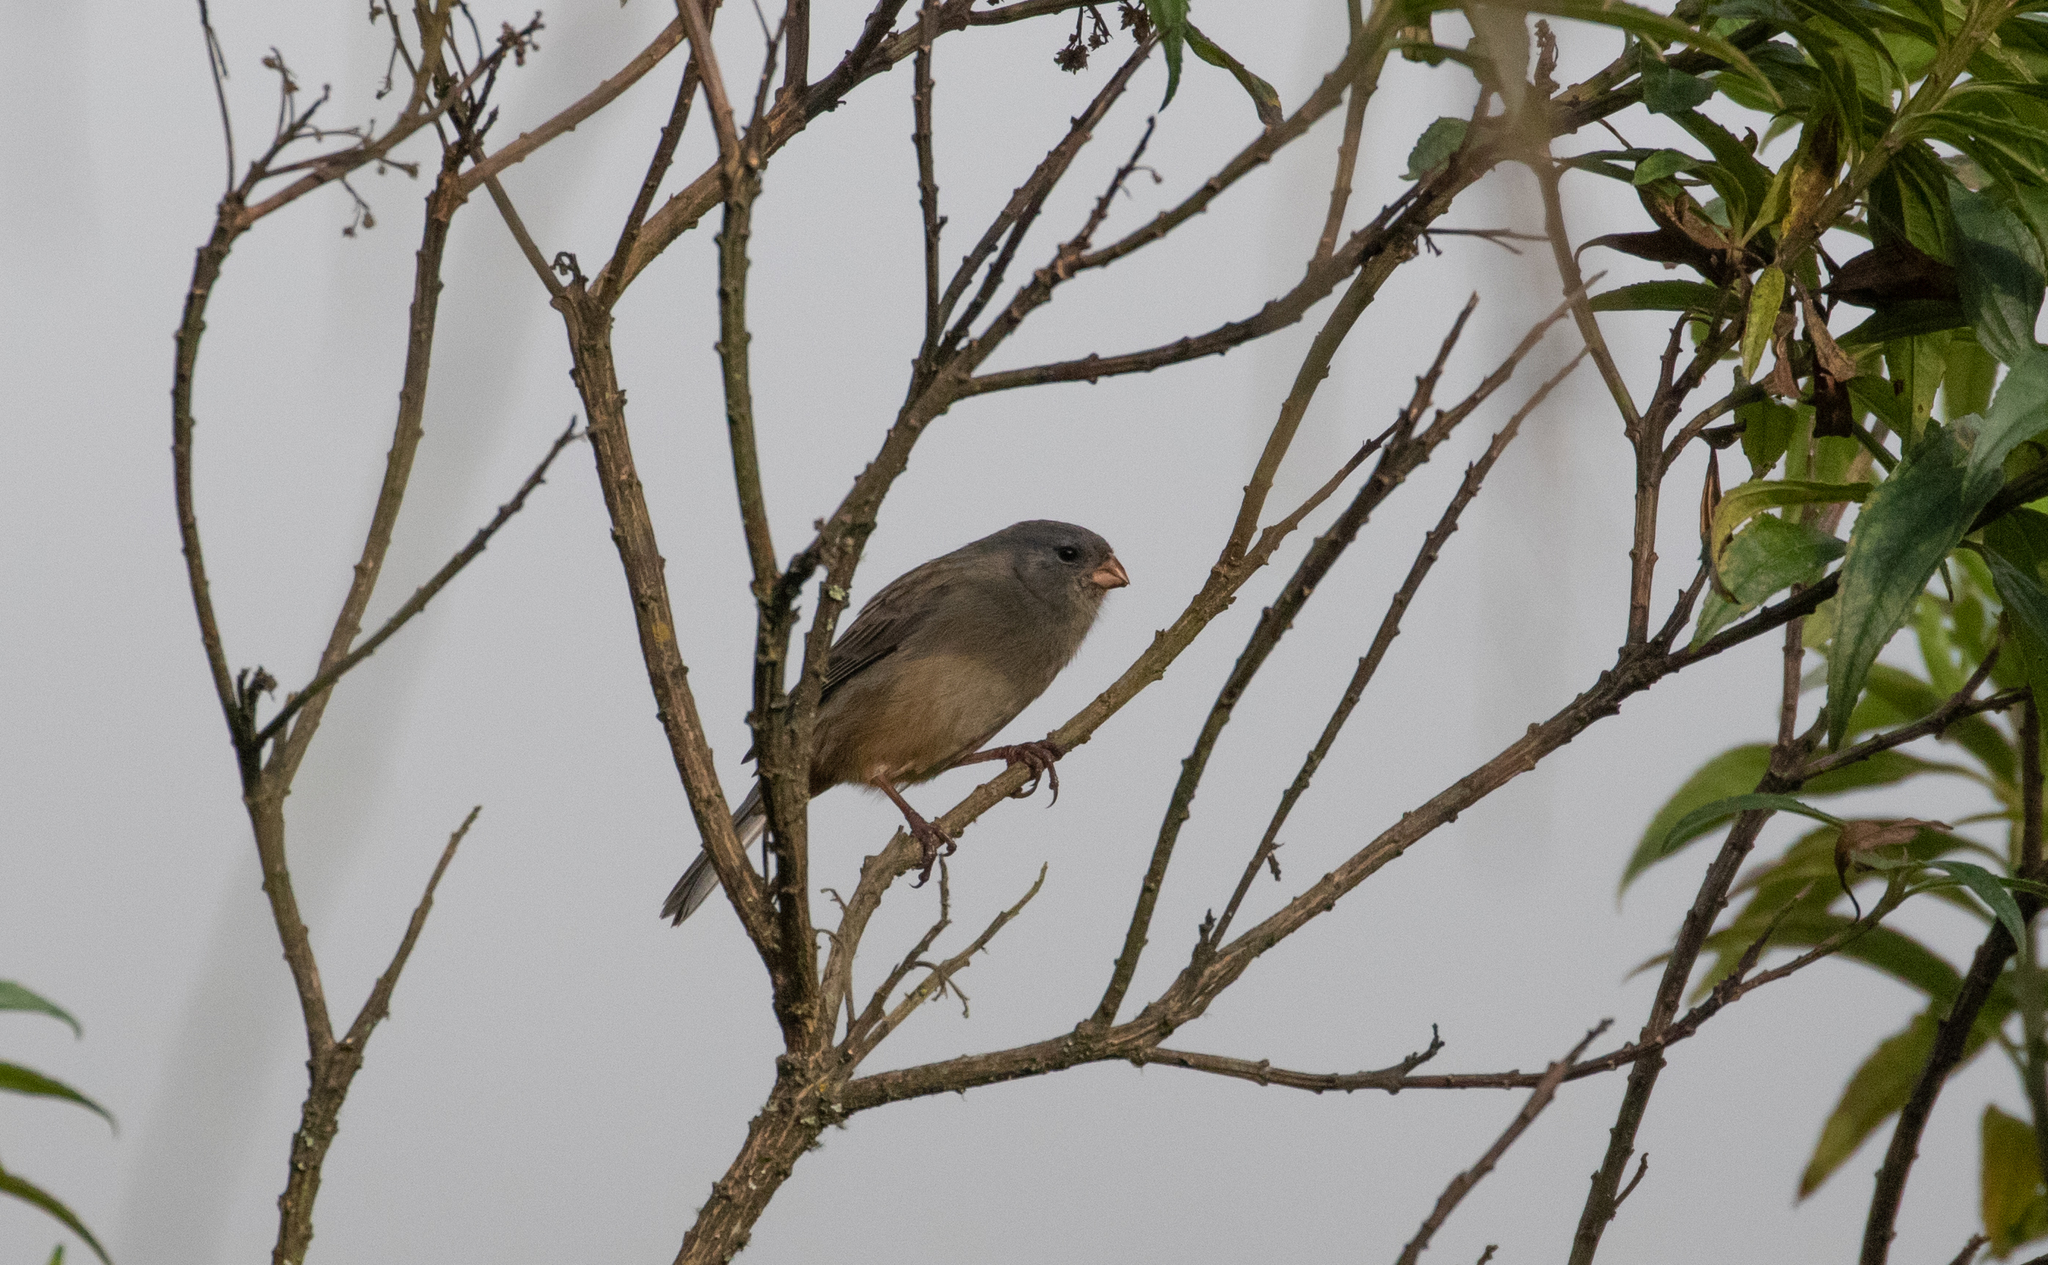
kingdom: Animalia
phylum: Chordata
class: Aves
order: Passeriformes
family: Thraupidae
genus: Catamenia
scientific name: Catamenia inornata
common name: Plain-colored seedeater
